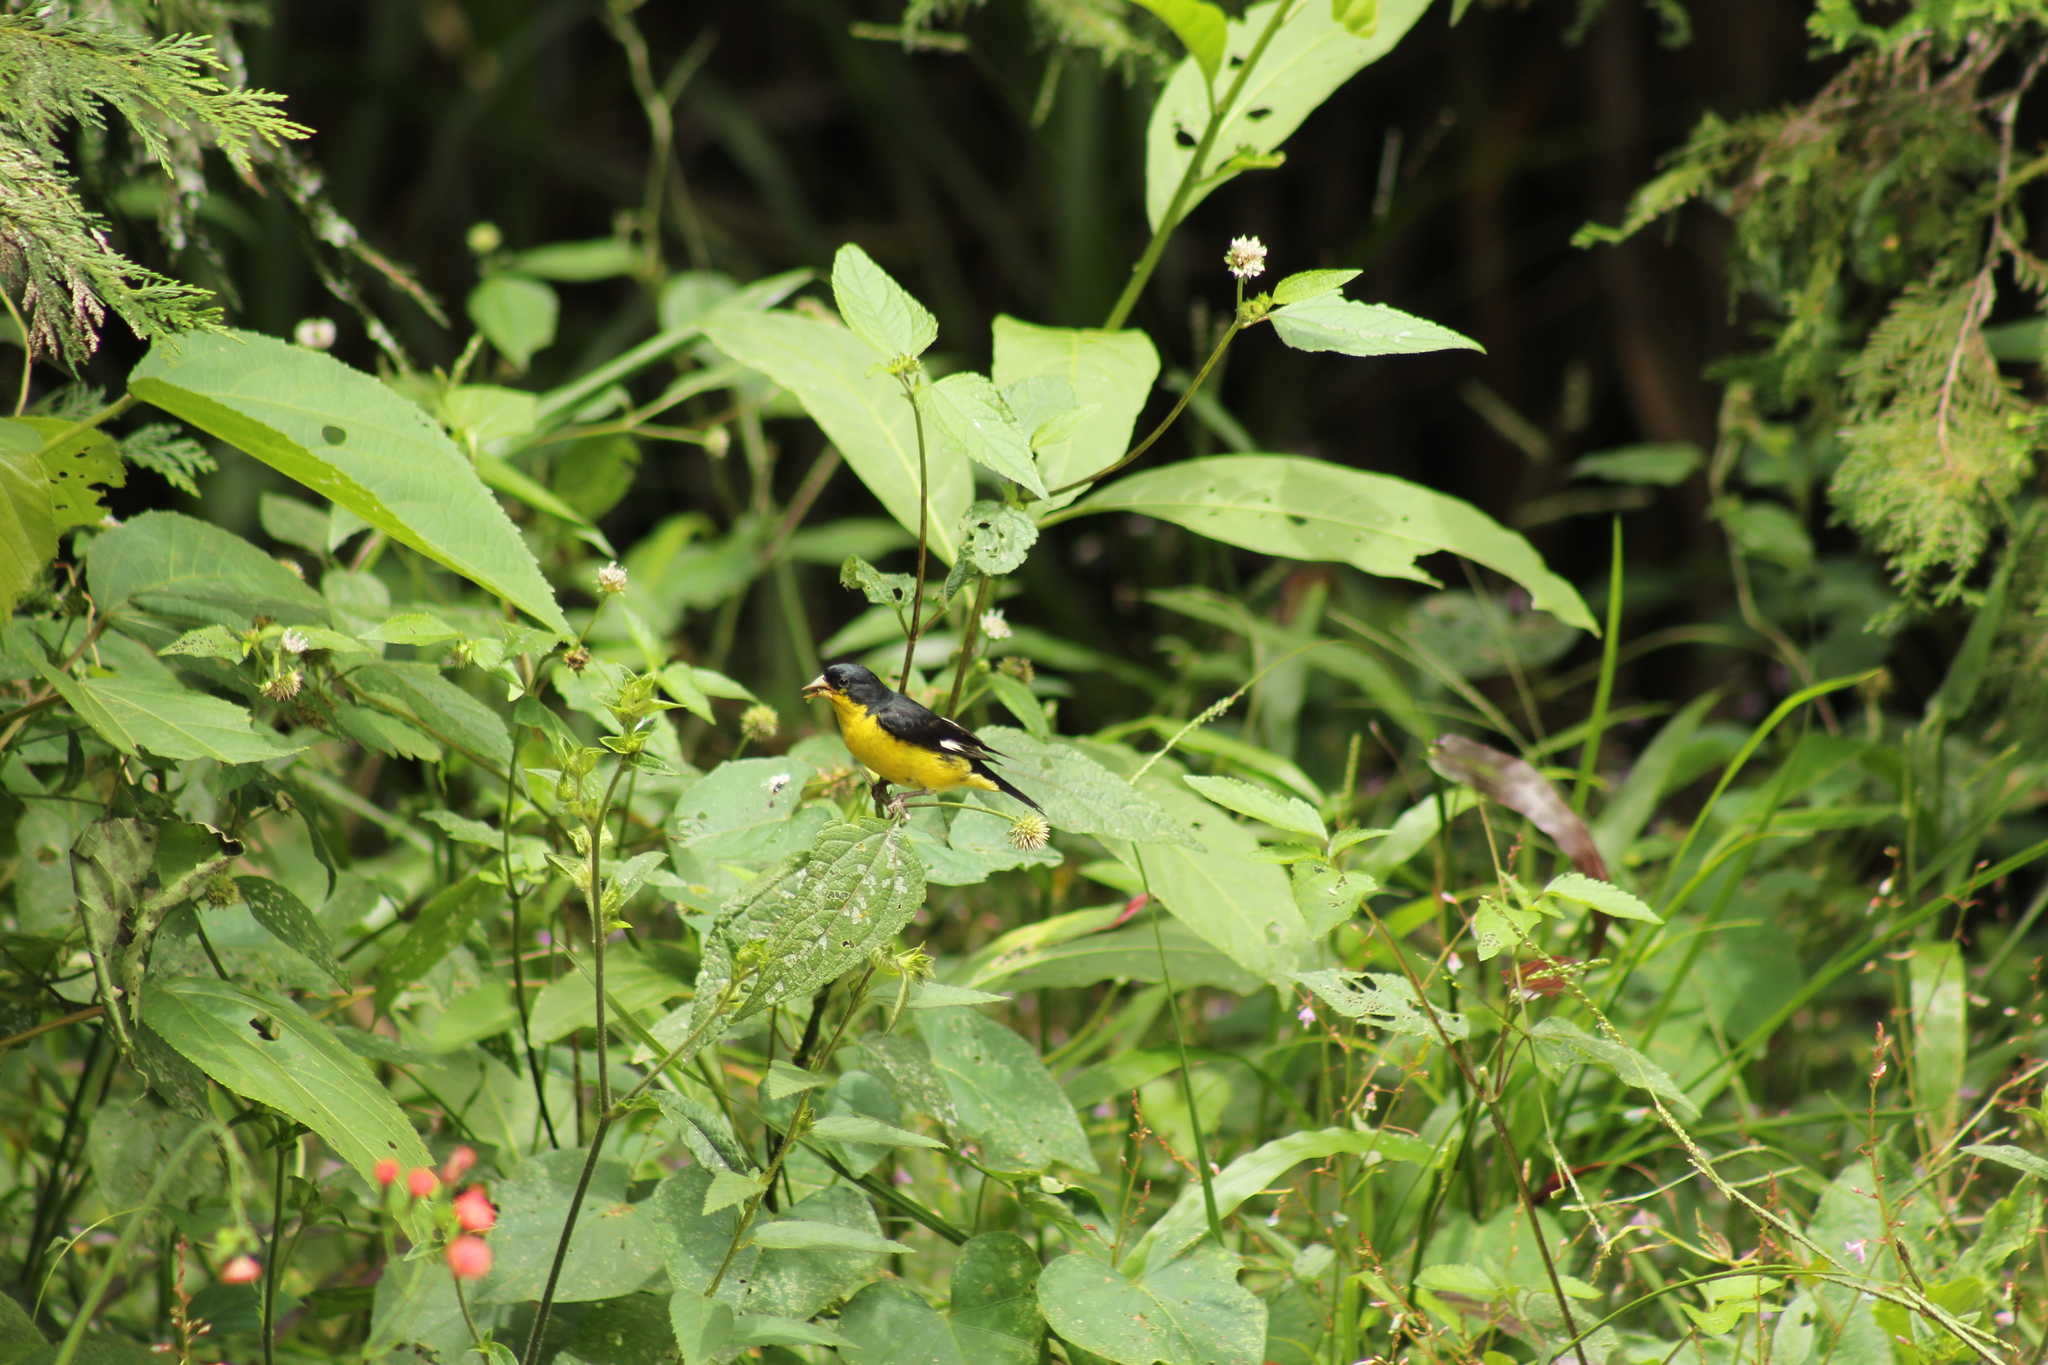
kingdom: Animalia
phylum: Chordata
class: Aves
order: Passeriformes
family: Fringillidae
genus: Spinus
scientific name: Spinus psaltria
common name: Lesser goldfinch
